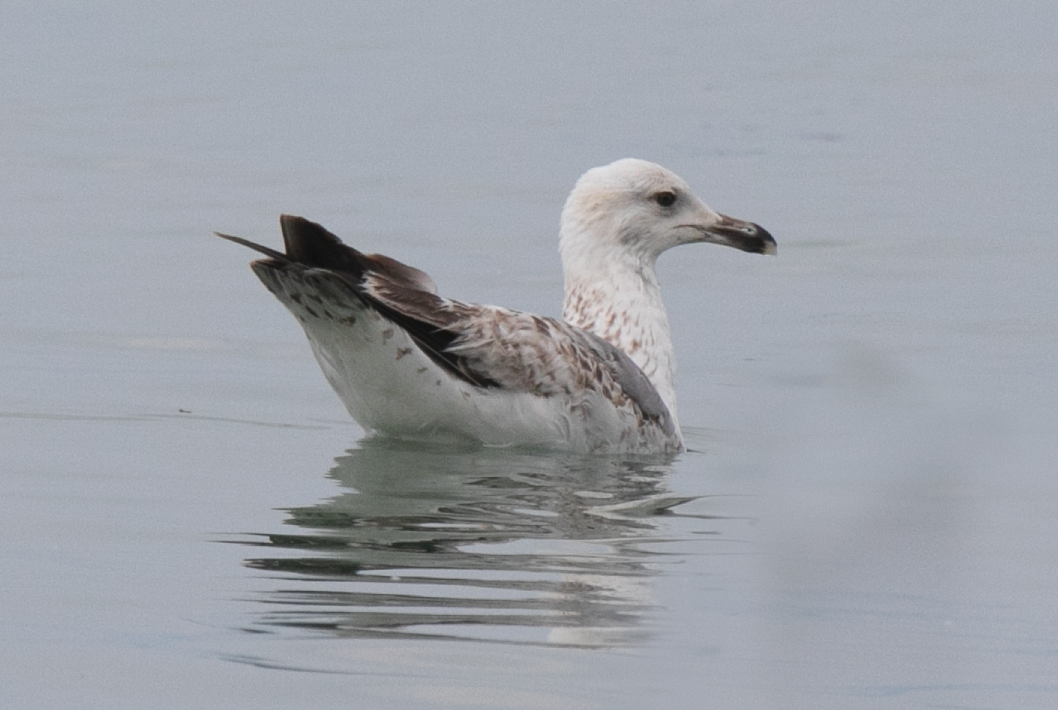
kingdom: Animalia
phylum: Chordata
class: Aves
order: Charadriiformes
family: Laridae
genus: Larus
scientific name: Larus michahellis
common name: Yellow-legged gull
